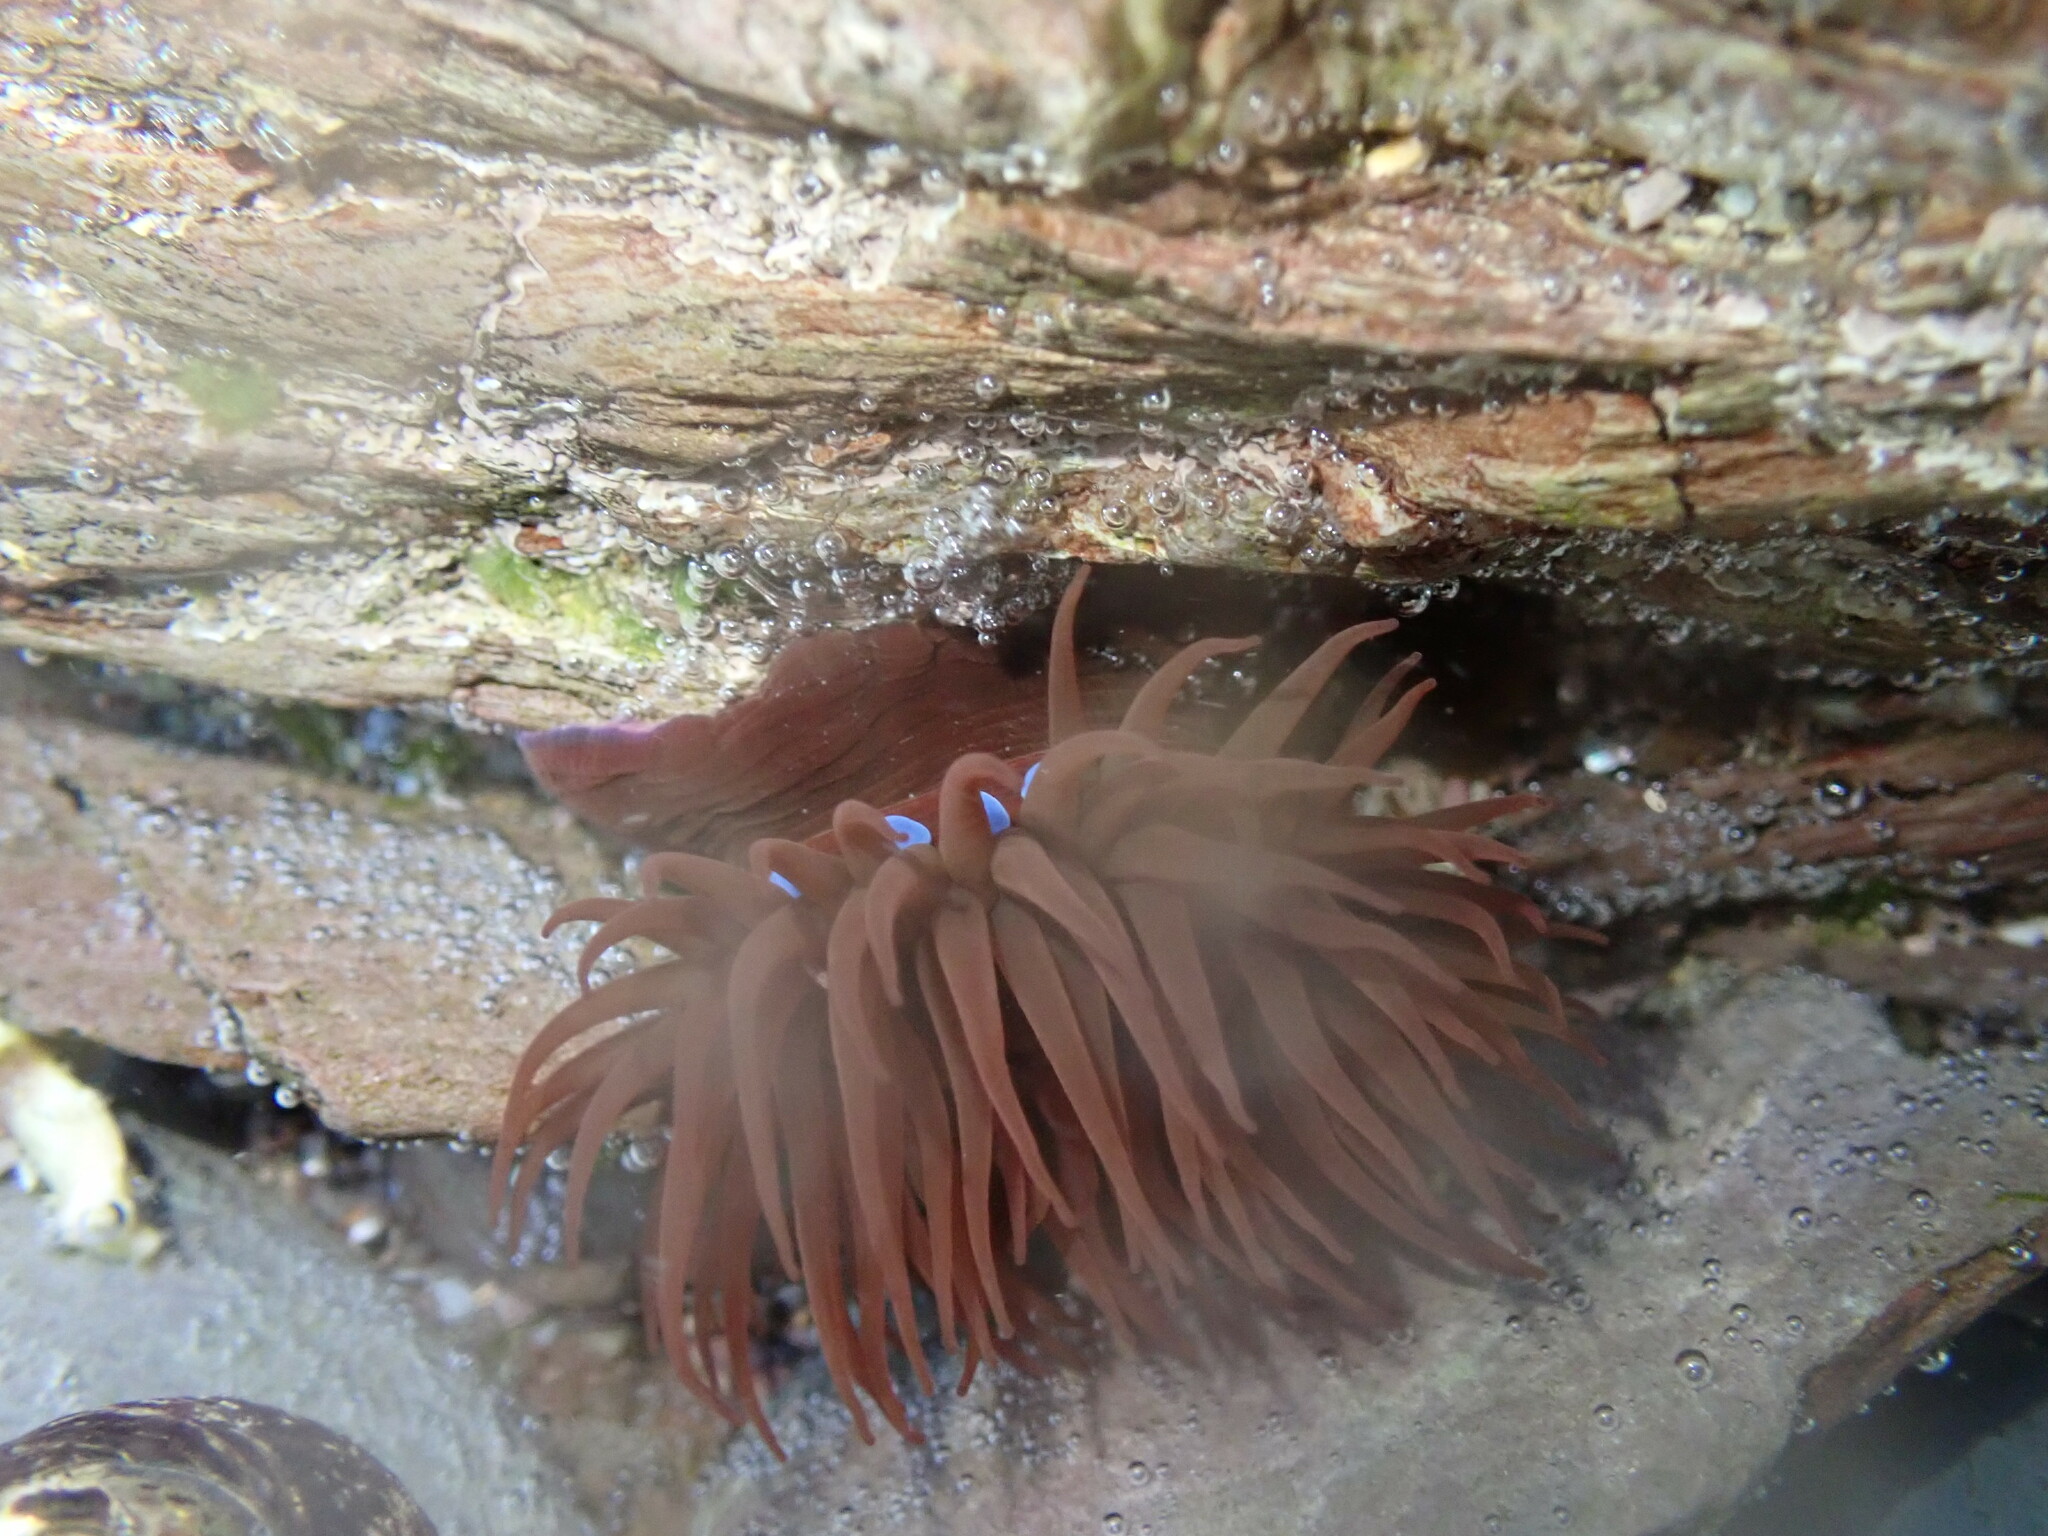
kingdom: Animalia
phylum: Cnidaria
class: Anthozoa
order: Actiniaria
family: Actiniidae
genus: Actinia
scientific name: Actinia equina
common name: Beadlet anemone
